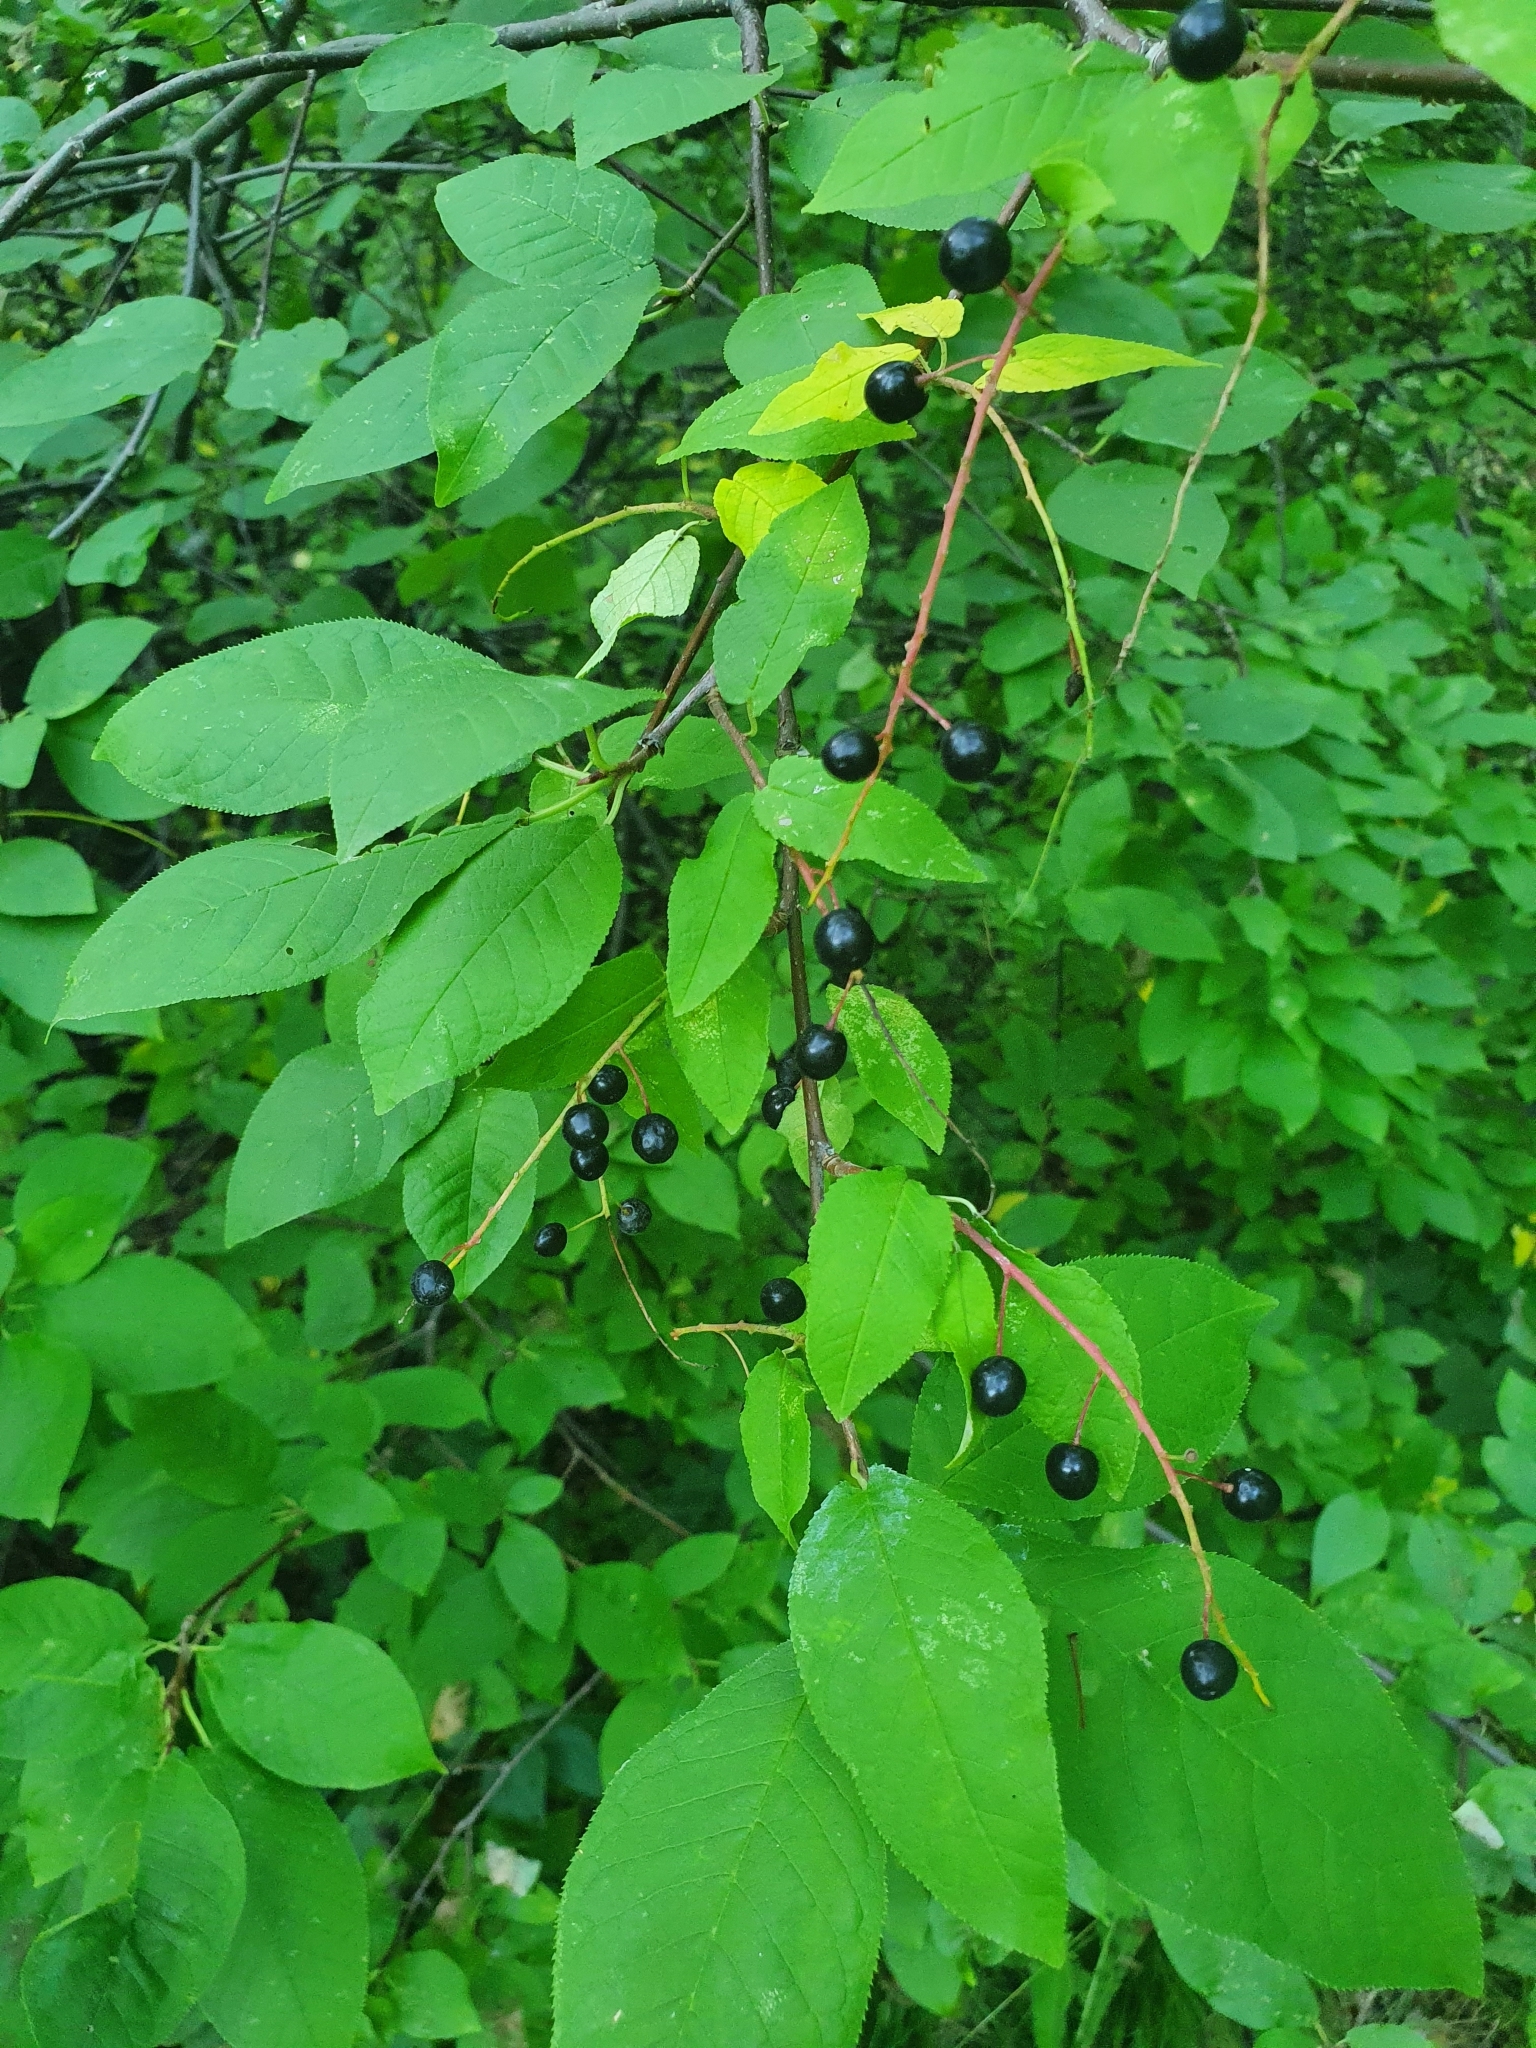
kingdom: Plantae
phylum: Tracheophyta
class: Magnoliopsida
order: Rosales
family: Rosaceae
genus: Prunus
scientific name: Prunus padus
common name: Bird cherry
